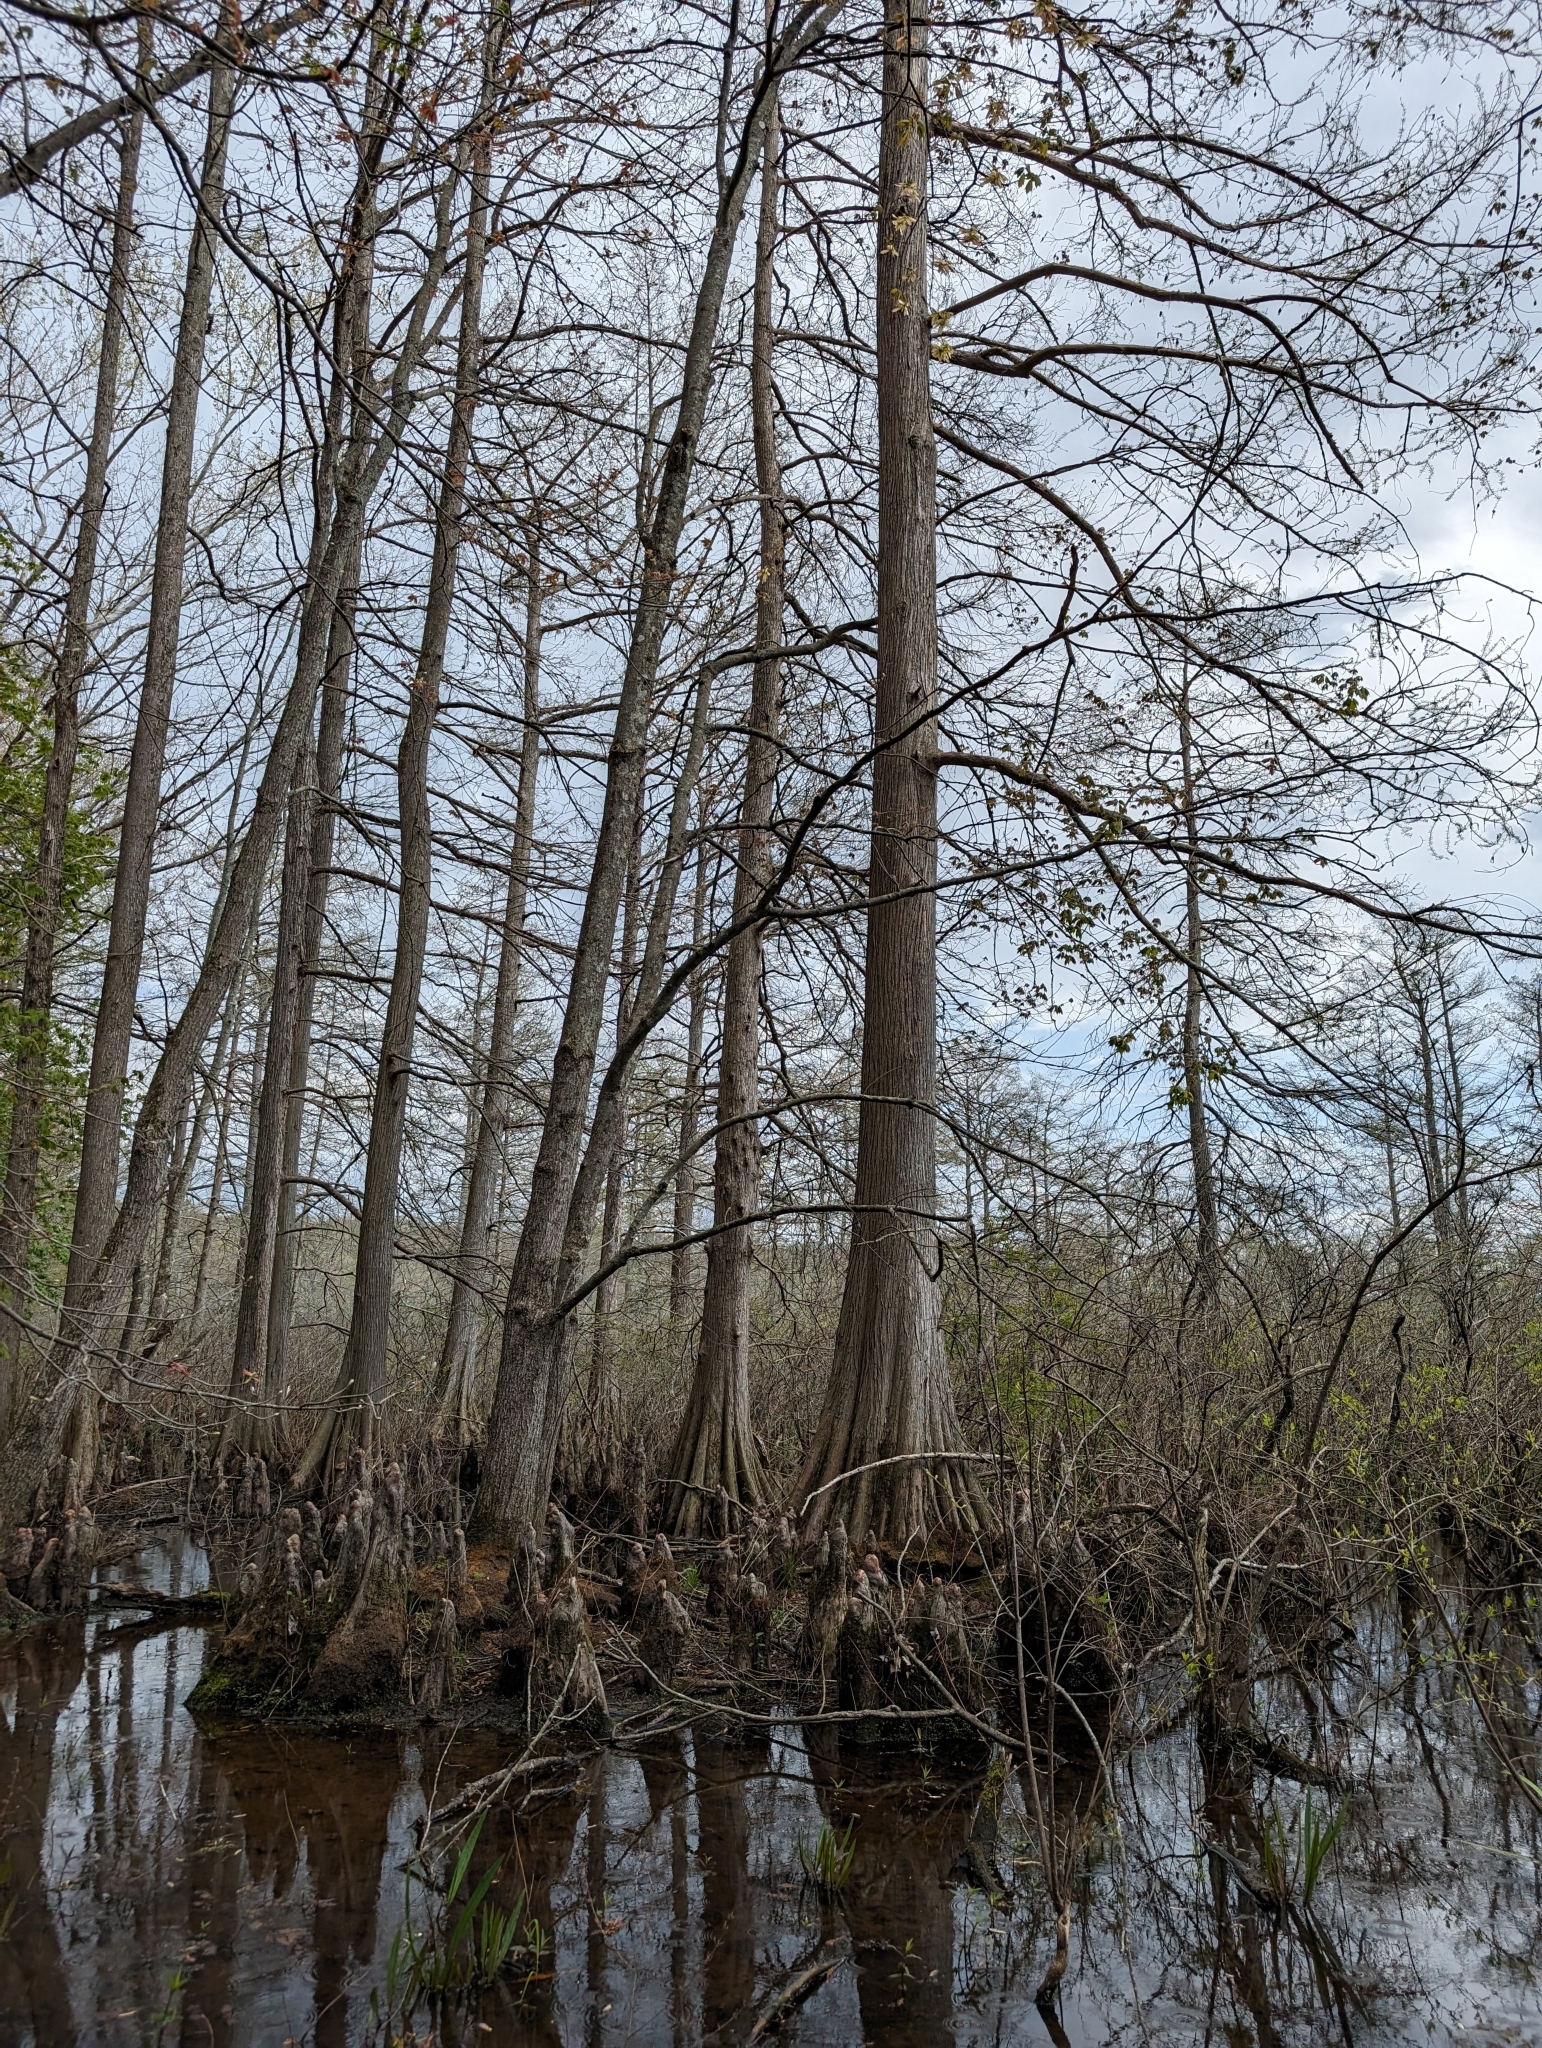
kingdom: Plantae
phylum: Tracheophyta
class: Pinopsida
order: Pinales
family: Cupressaceae
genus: Taxodium
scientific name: Taxodium distichum
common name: Bald cypress
